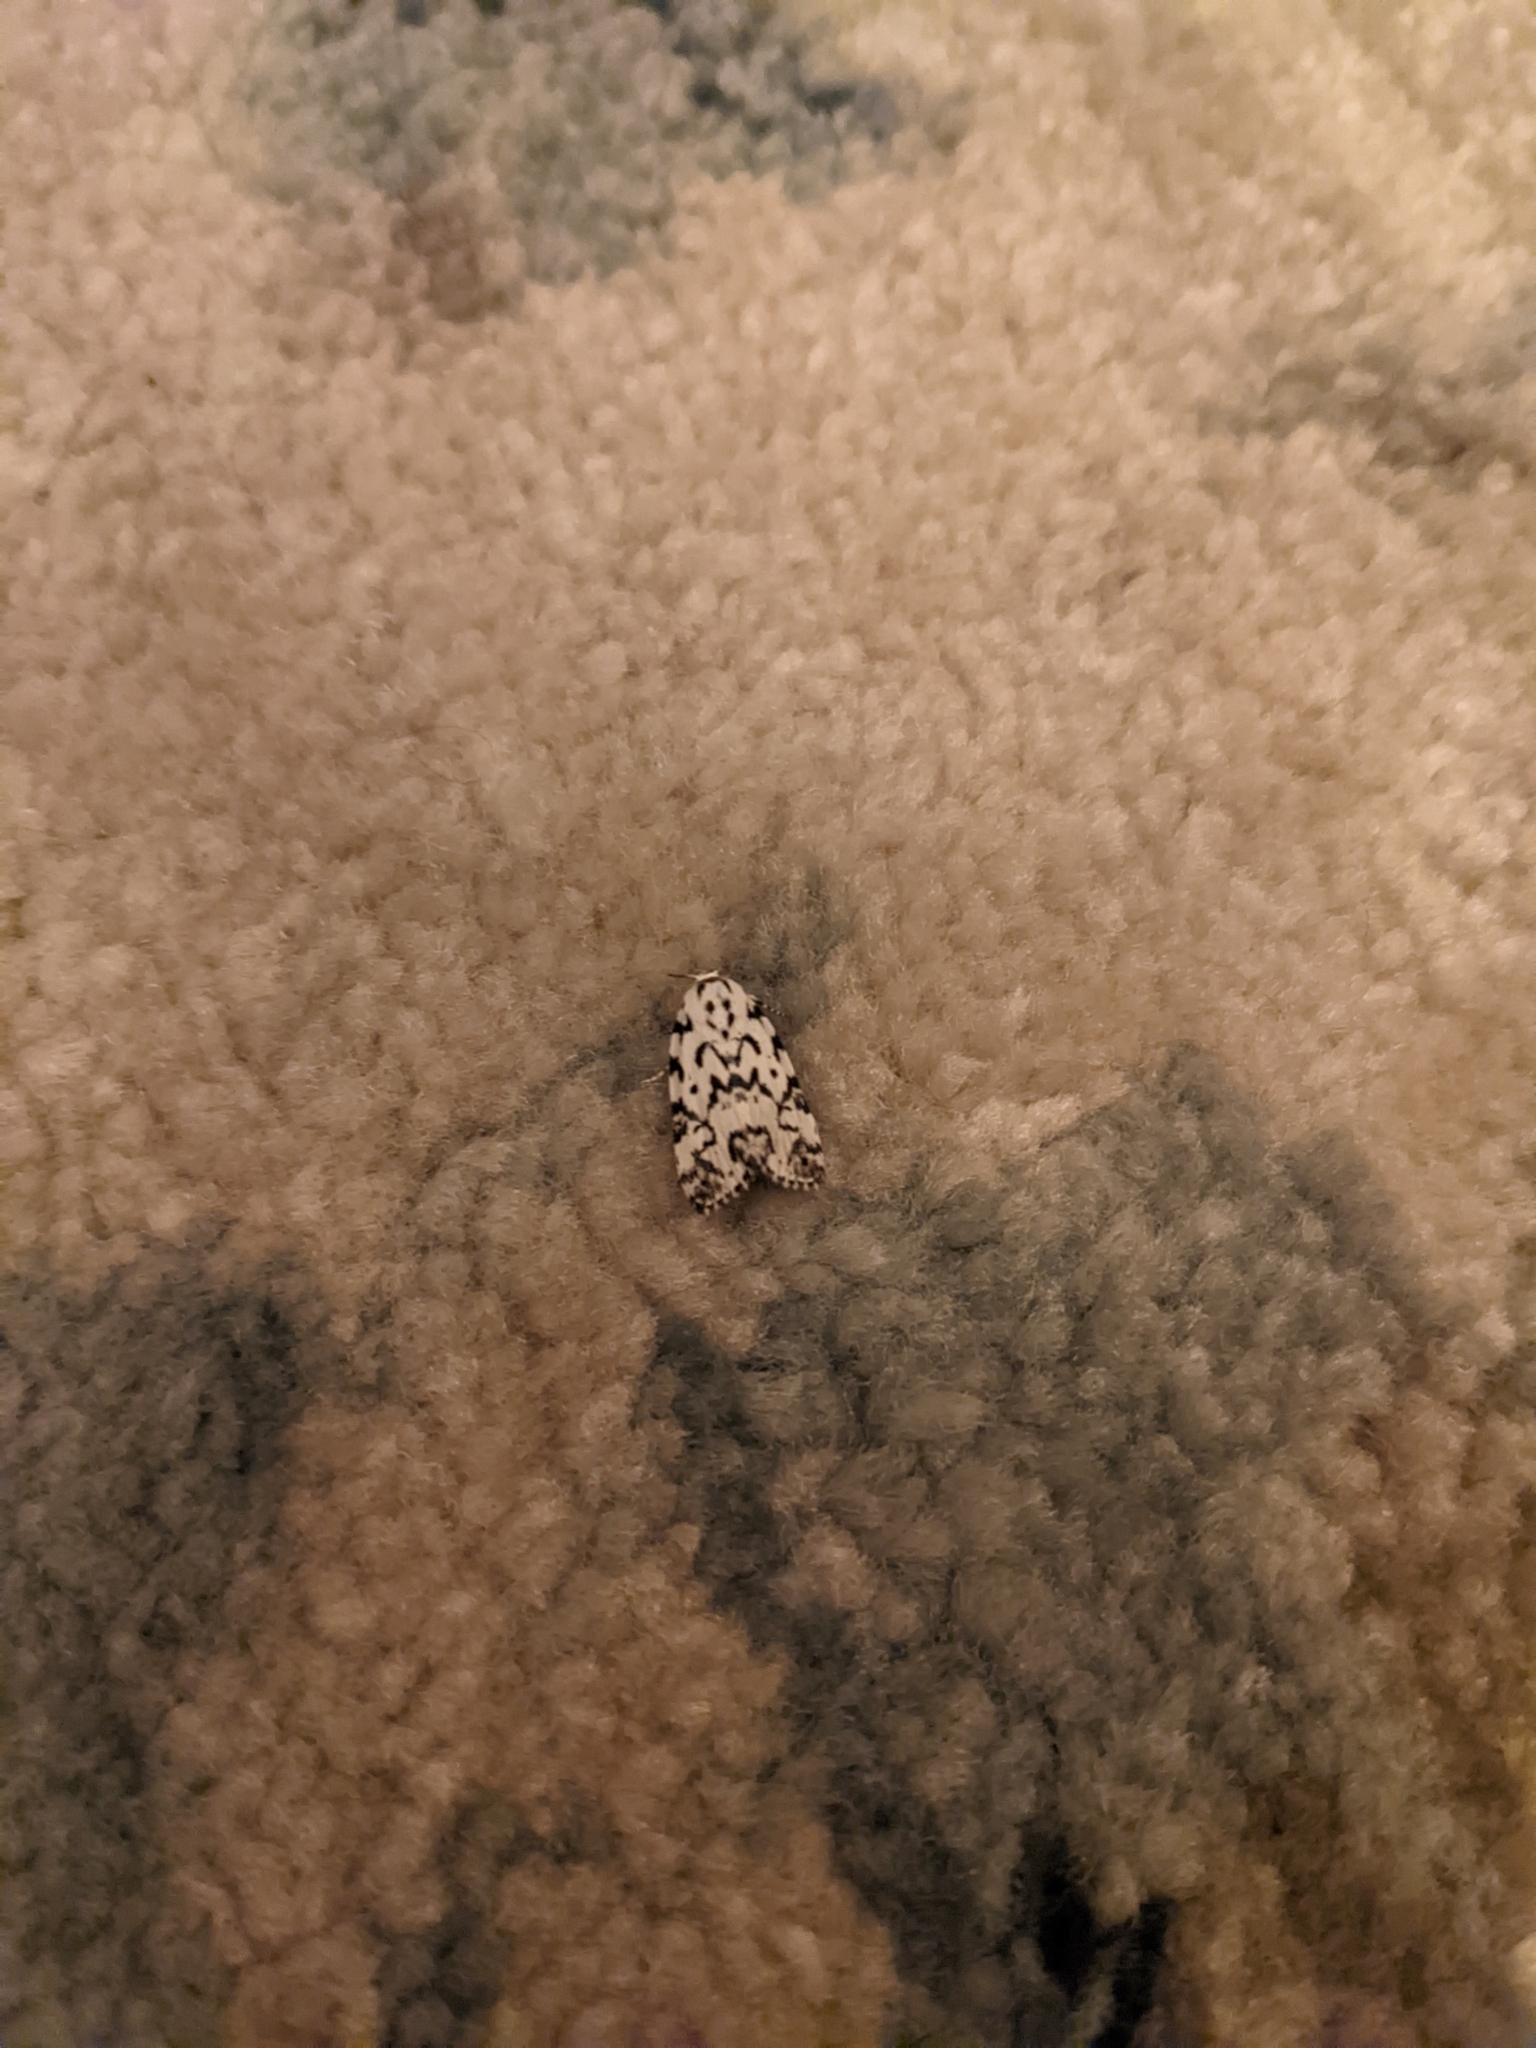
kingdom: Animalia
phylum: Arthropoda
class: Insecta
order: Lepidoptera
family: Noctuidae
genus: Polygrammate
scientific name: Polygrammate hebraeicum
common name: Hebrew moth
